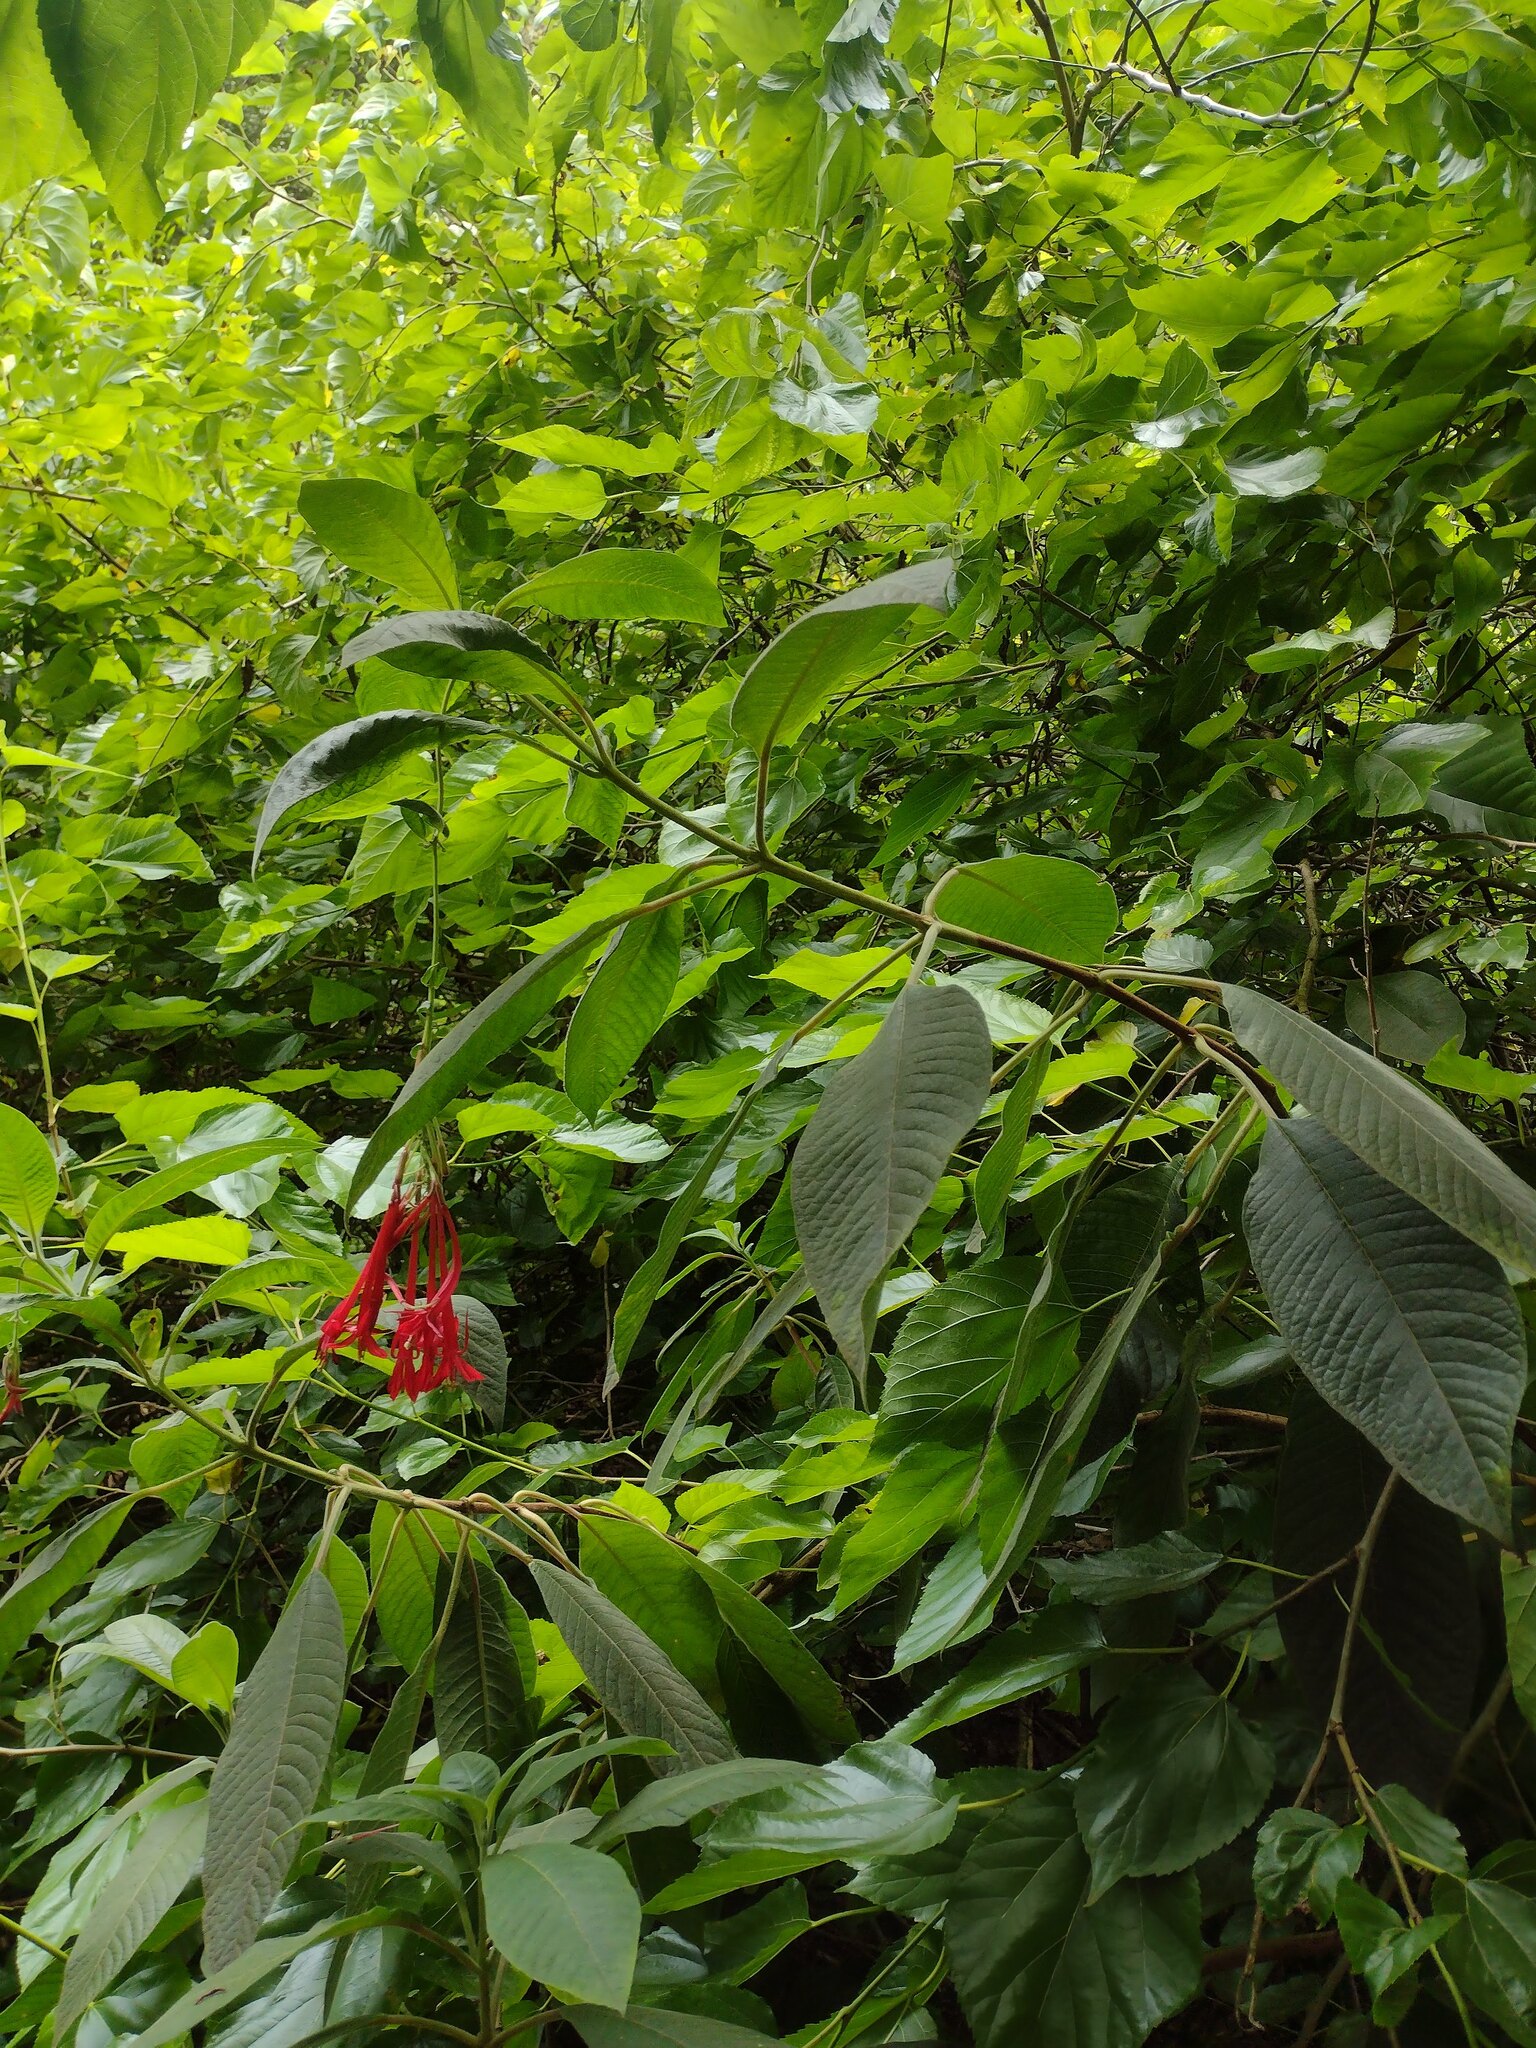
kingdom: Plantae
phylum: Tracheophyta
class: Magnoliopsida
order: Myrtales
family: Onagraceae
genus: Fuchsia
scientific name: Fuchsia boliviana
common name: Bolivian fuchsia
